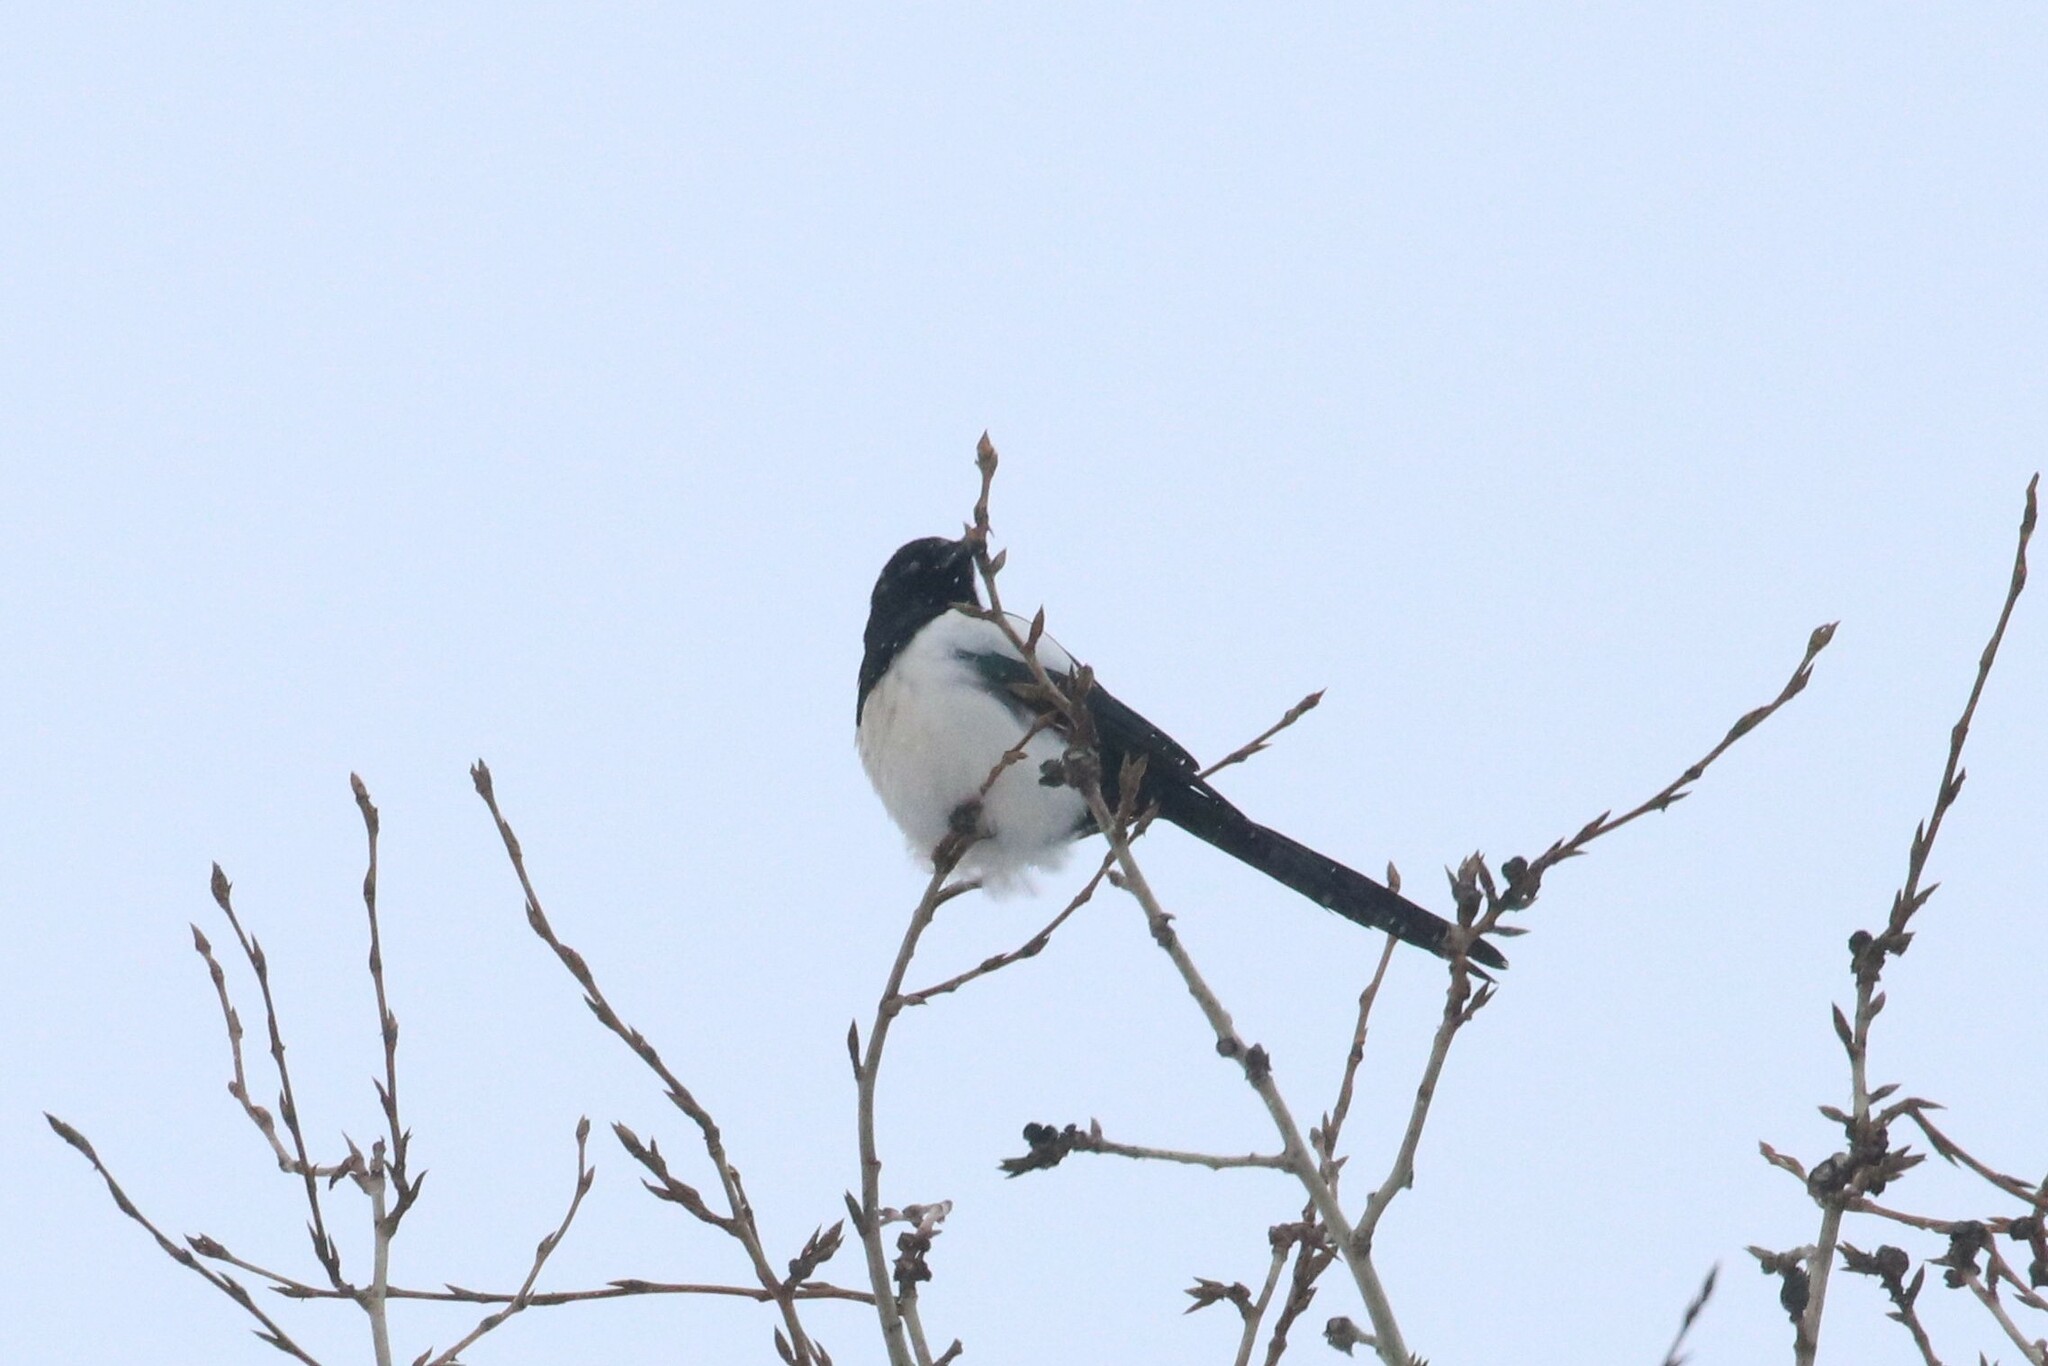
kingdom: Animalia
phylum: Chordata
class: Aves
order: Passeriformes
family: Corvidae
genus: Pica
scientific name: Pica pica
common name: Eurasian magpie
